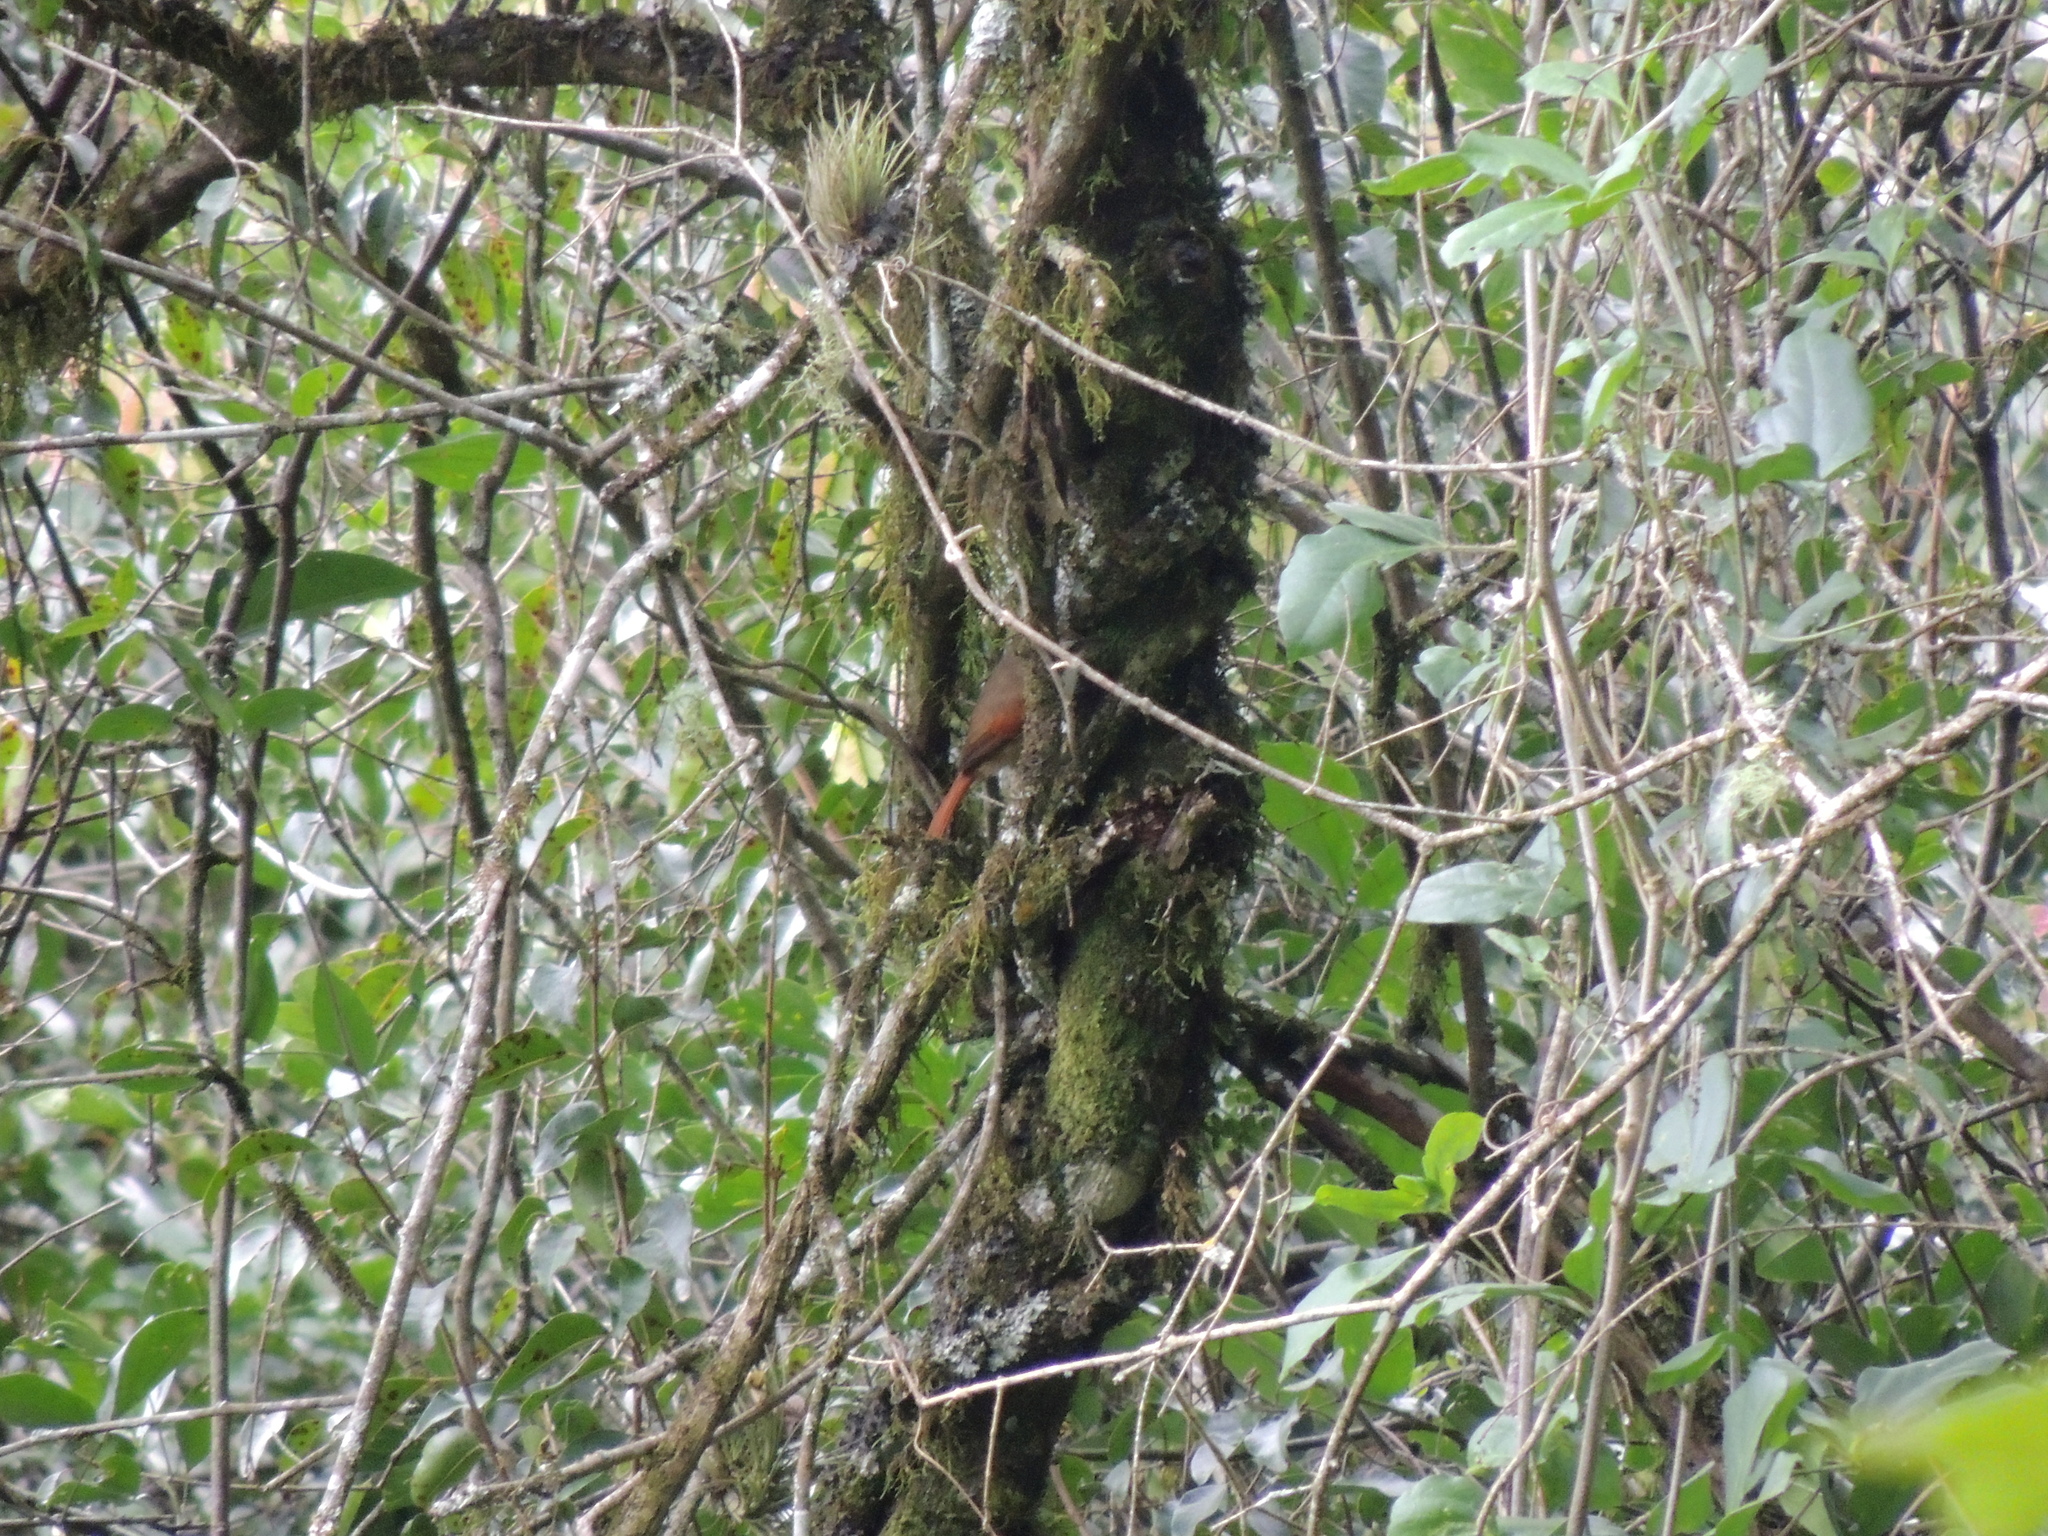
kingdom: Animalia
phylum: Chordata
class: Aves
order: Passeriformes
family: Furnariidae
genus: Cranioleuca
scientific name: Cranioleuca pyrrhophia
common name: Stripe-crowned spinetail
